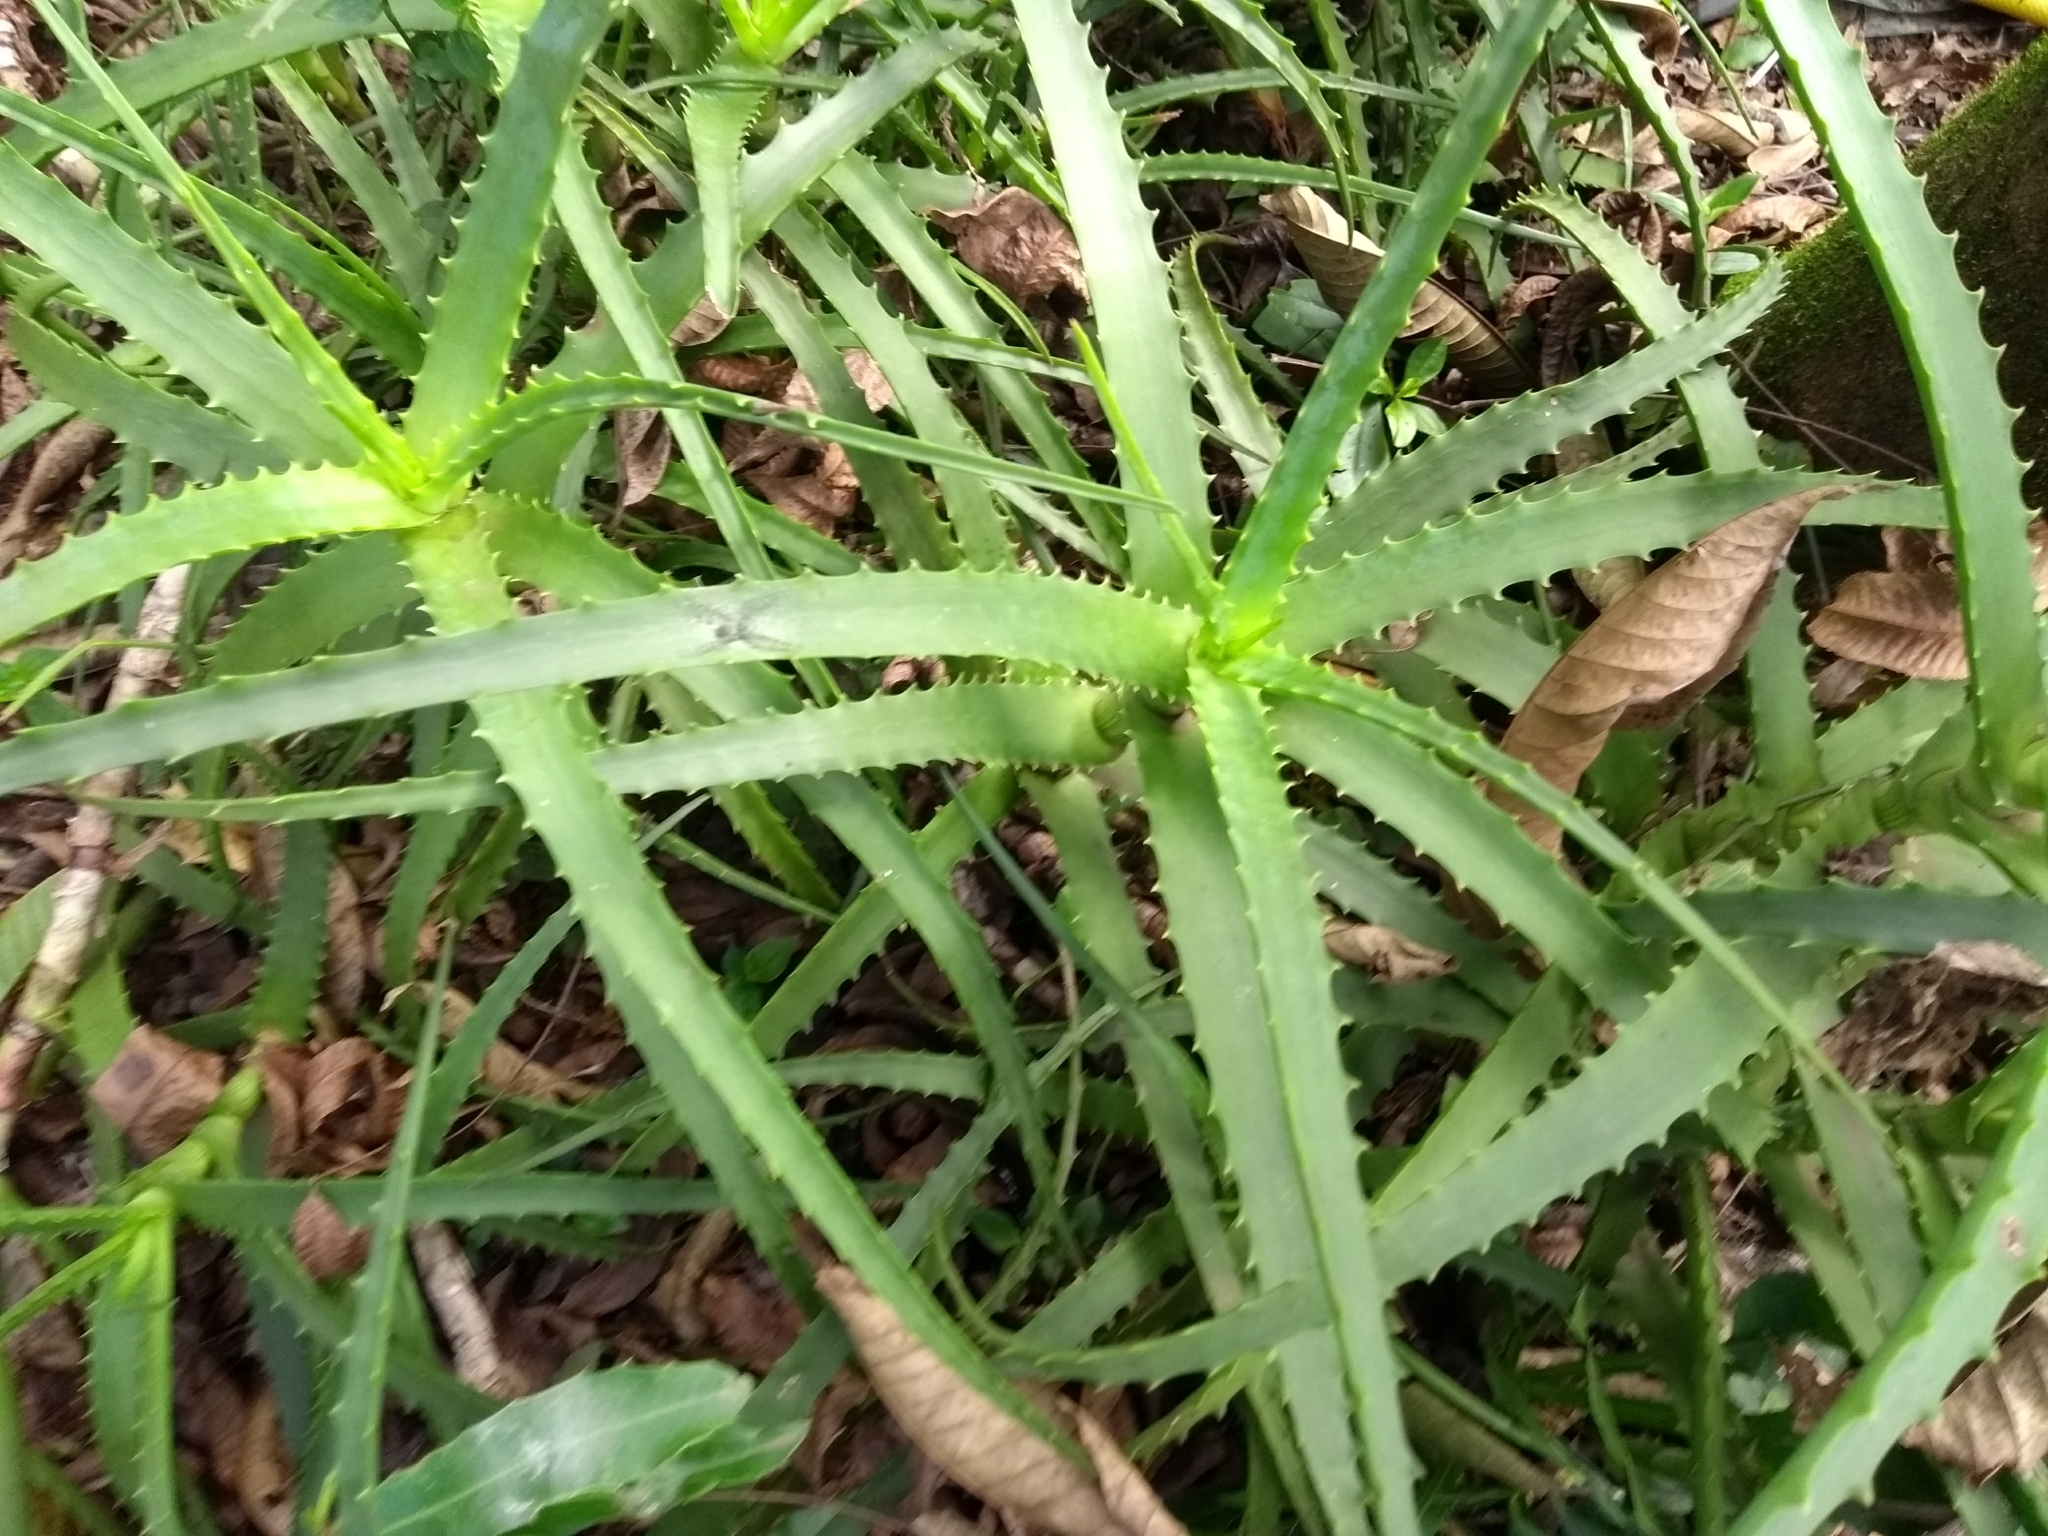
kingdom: Plantae
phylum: Tracheophyta
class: Liliopsida
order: Asparagales
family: Asphodelaceae
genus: Aloe
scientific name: Aloe arborescens
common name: Candelabra aloe
